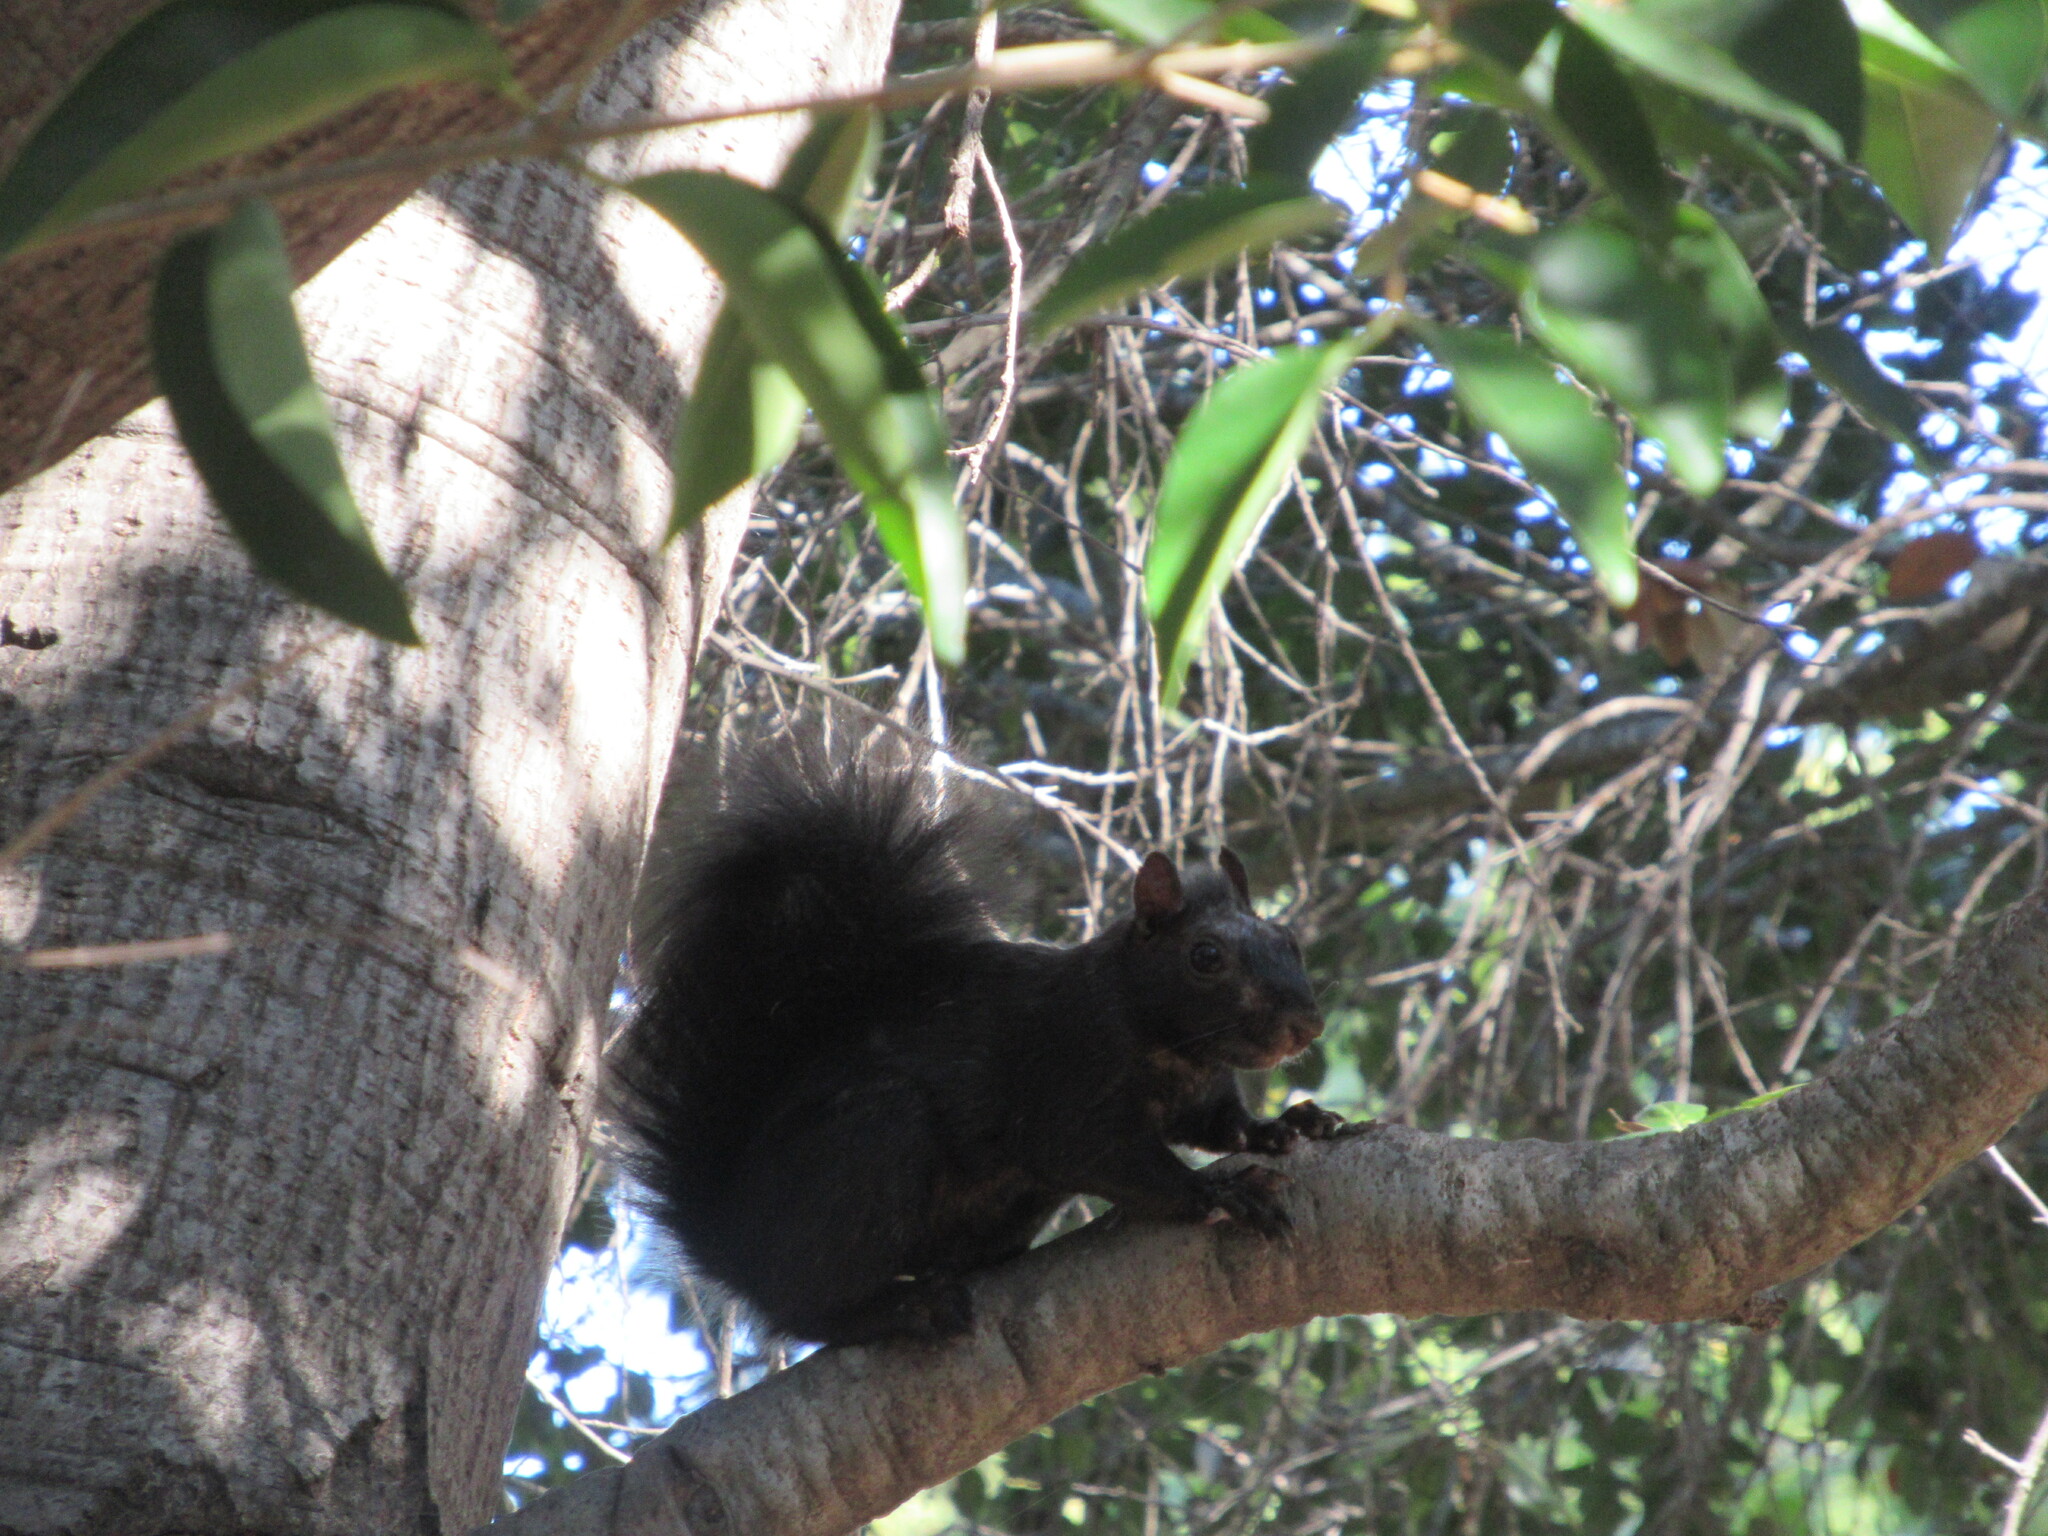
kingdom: Animalia
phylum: Chordata
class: Mammalia
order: Rodentia
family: Sciuridae
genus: Sciurus
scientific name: Sciurus carolinensis
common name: Eastern gray squirrel
